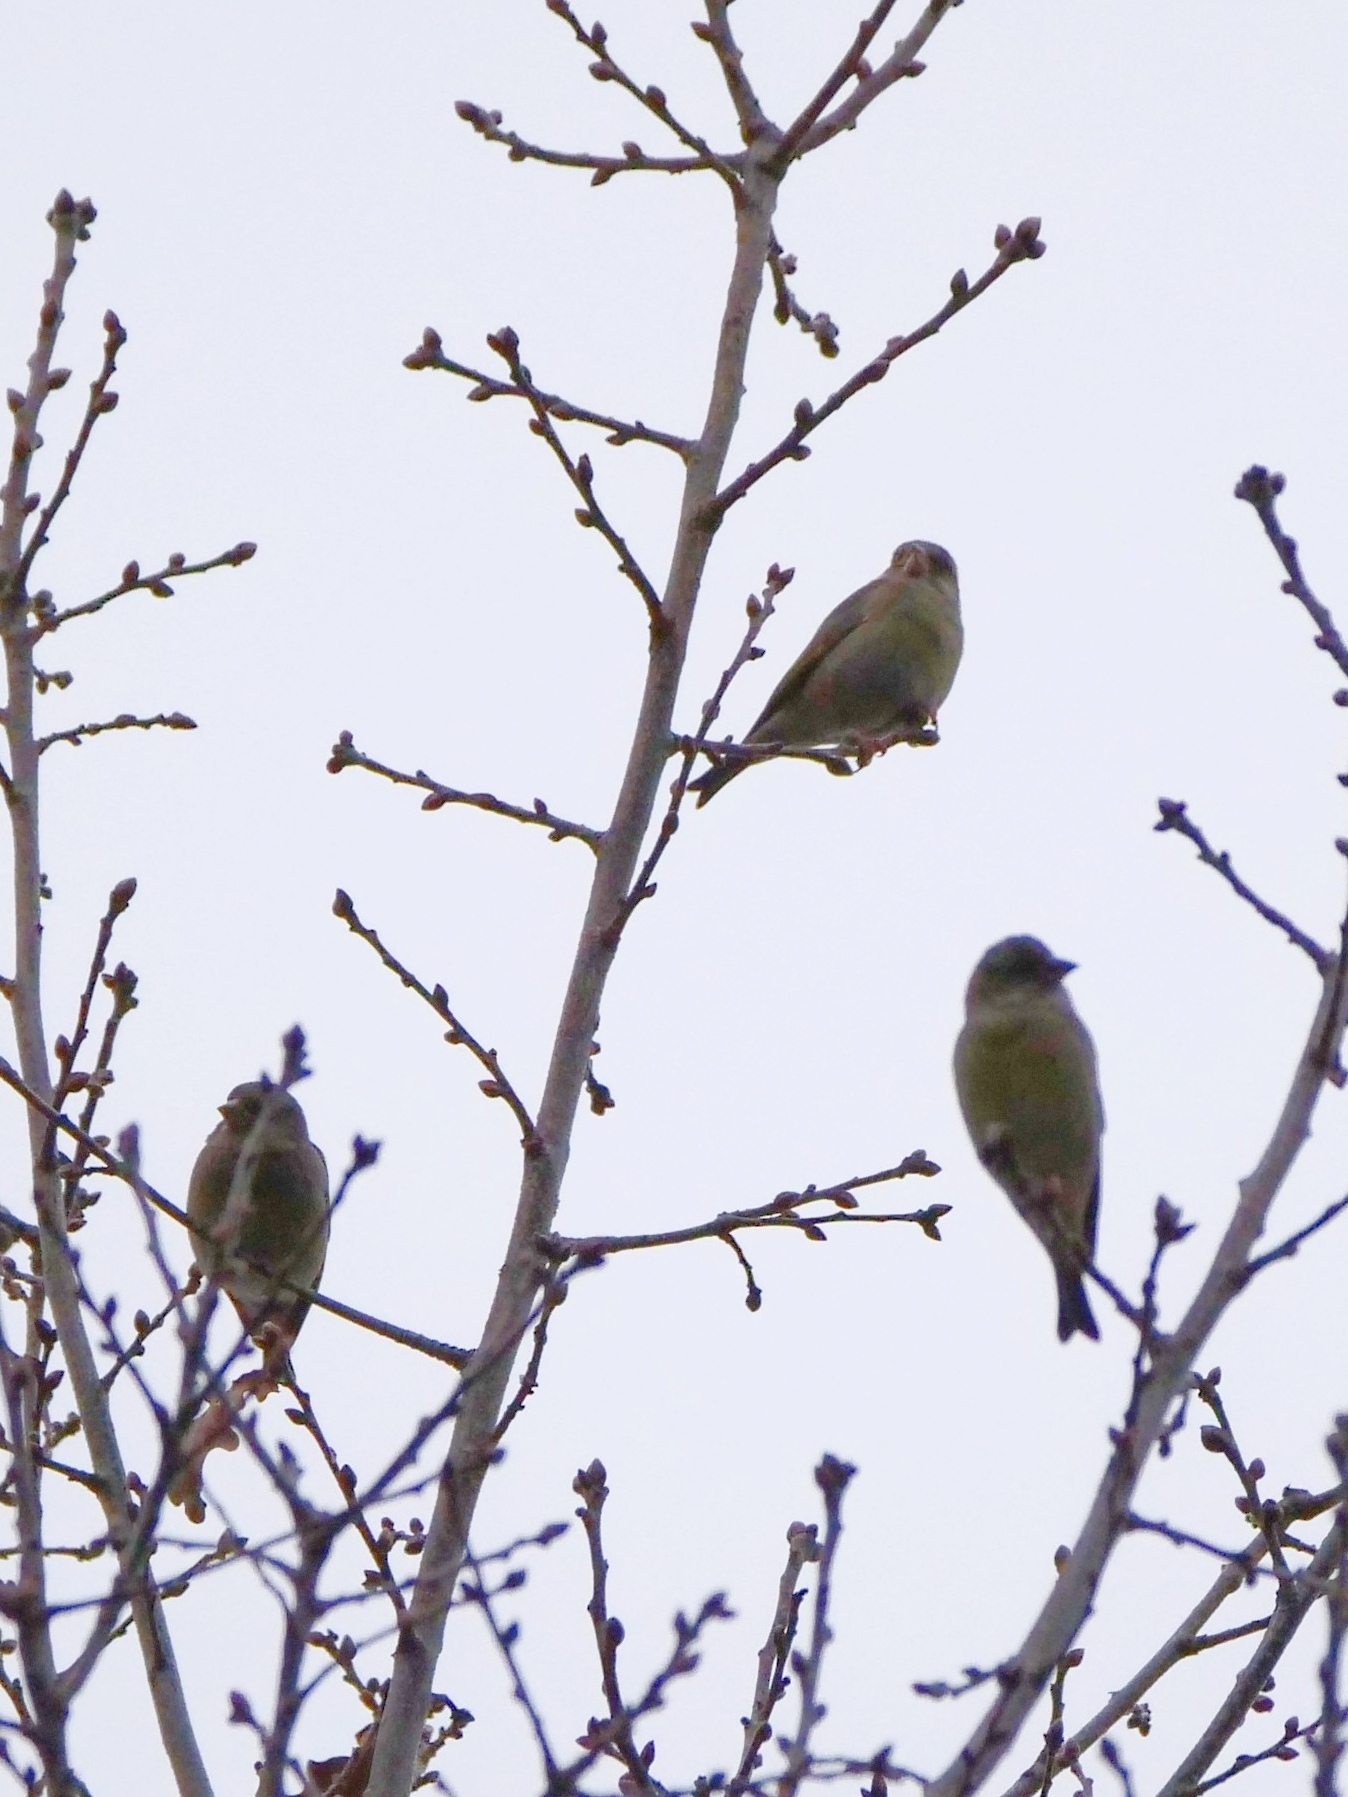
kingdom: Plantae
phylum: Tracheophyta
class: Liliopsida
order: Poales
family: Poaceae
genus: Chloris
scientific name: Chloris chloris
